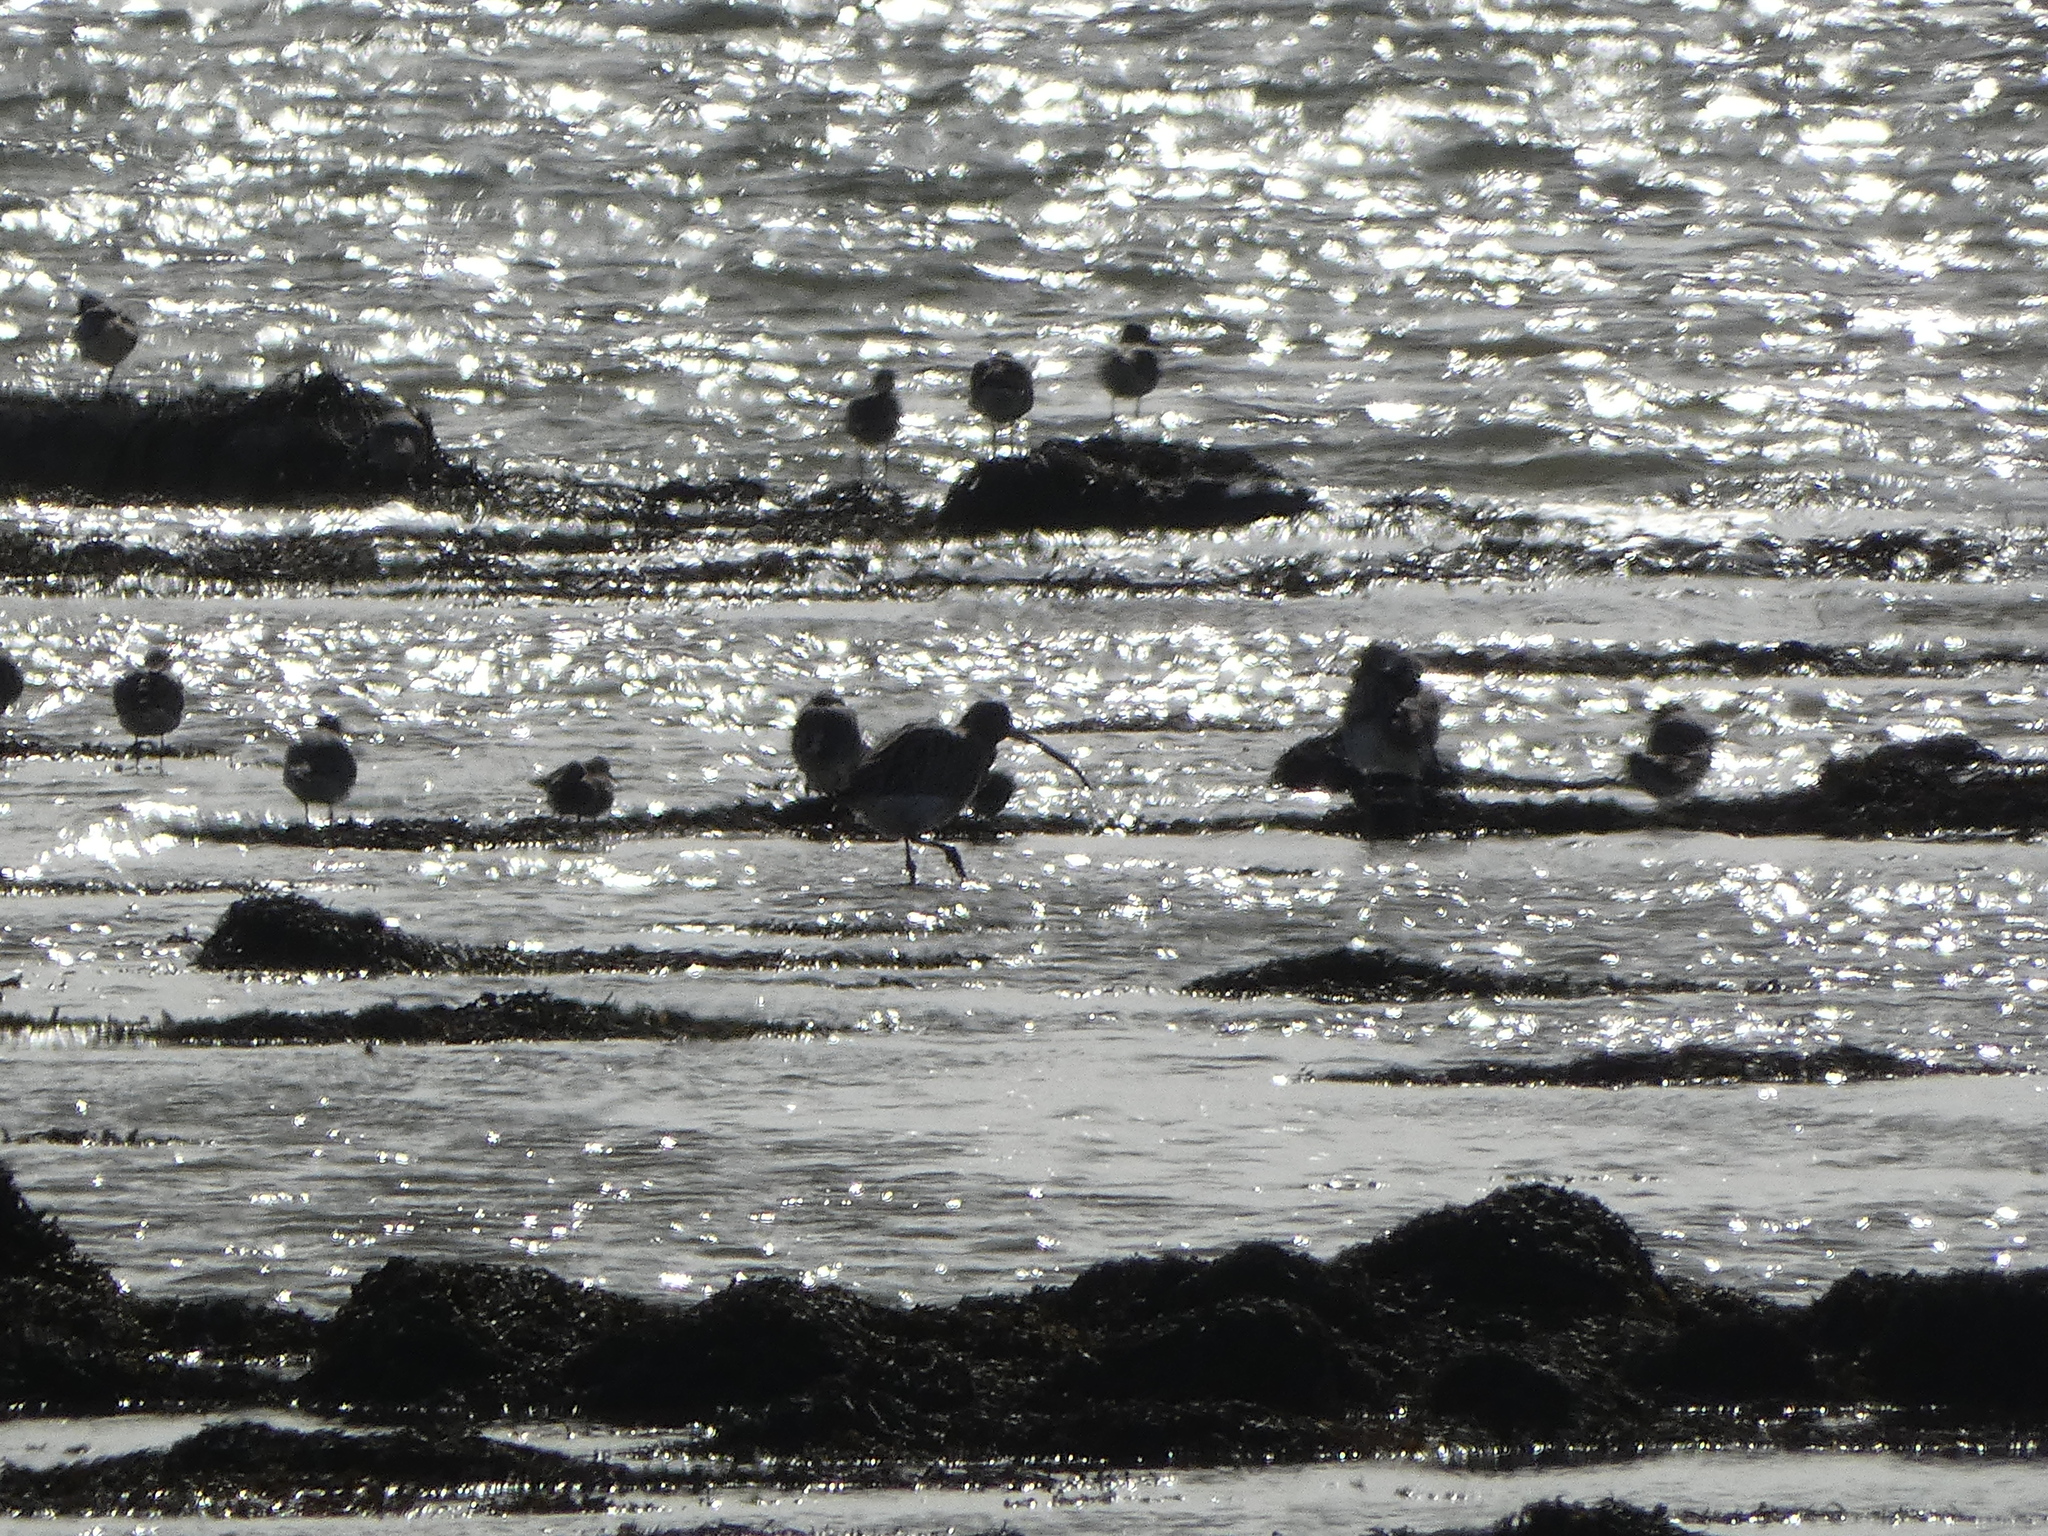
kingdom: Animalia
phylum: Chordata
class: Aves
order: Charadriiformes
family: Scolopacidae
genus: Numenius
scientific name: Numenius arquata
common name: Eurasian curlew
